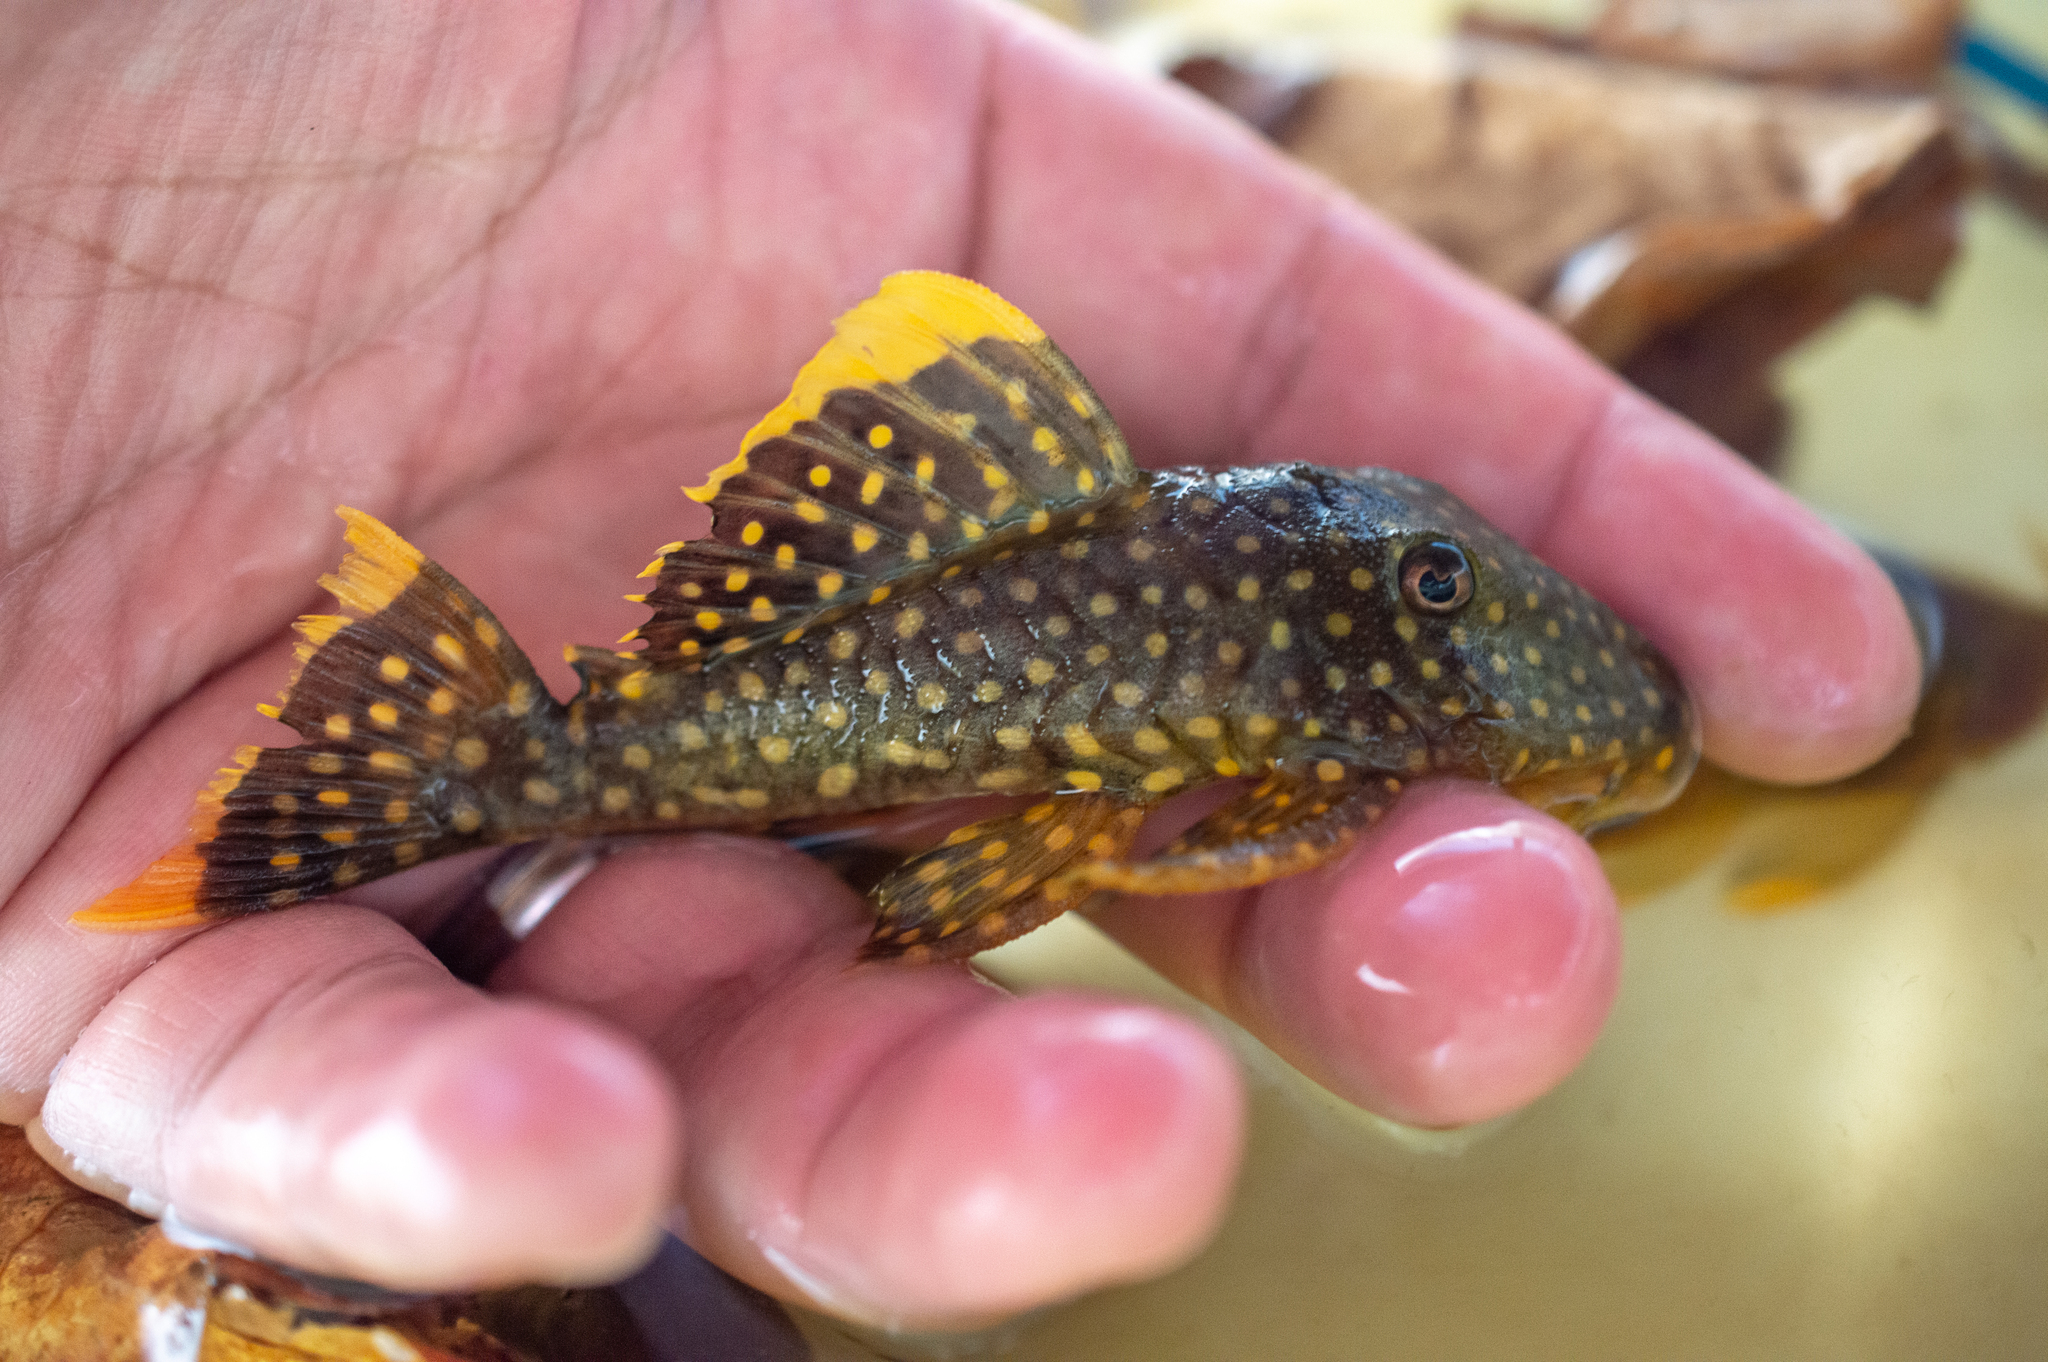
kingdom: Animalia
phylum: Chordata
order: Siluriformes
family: Loricariidae
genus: Baryancistrus
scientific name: Baryancistrus xanthellus
